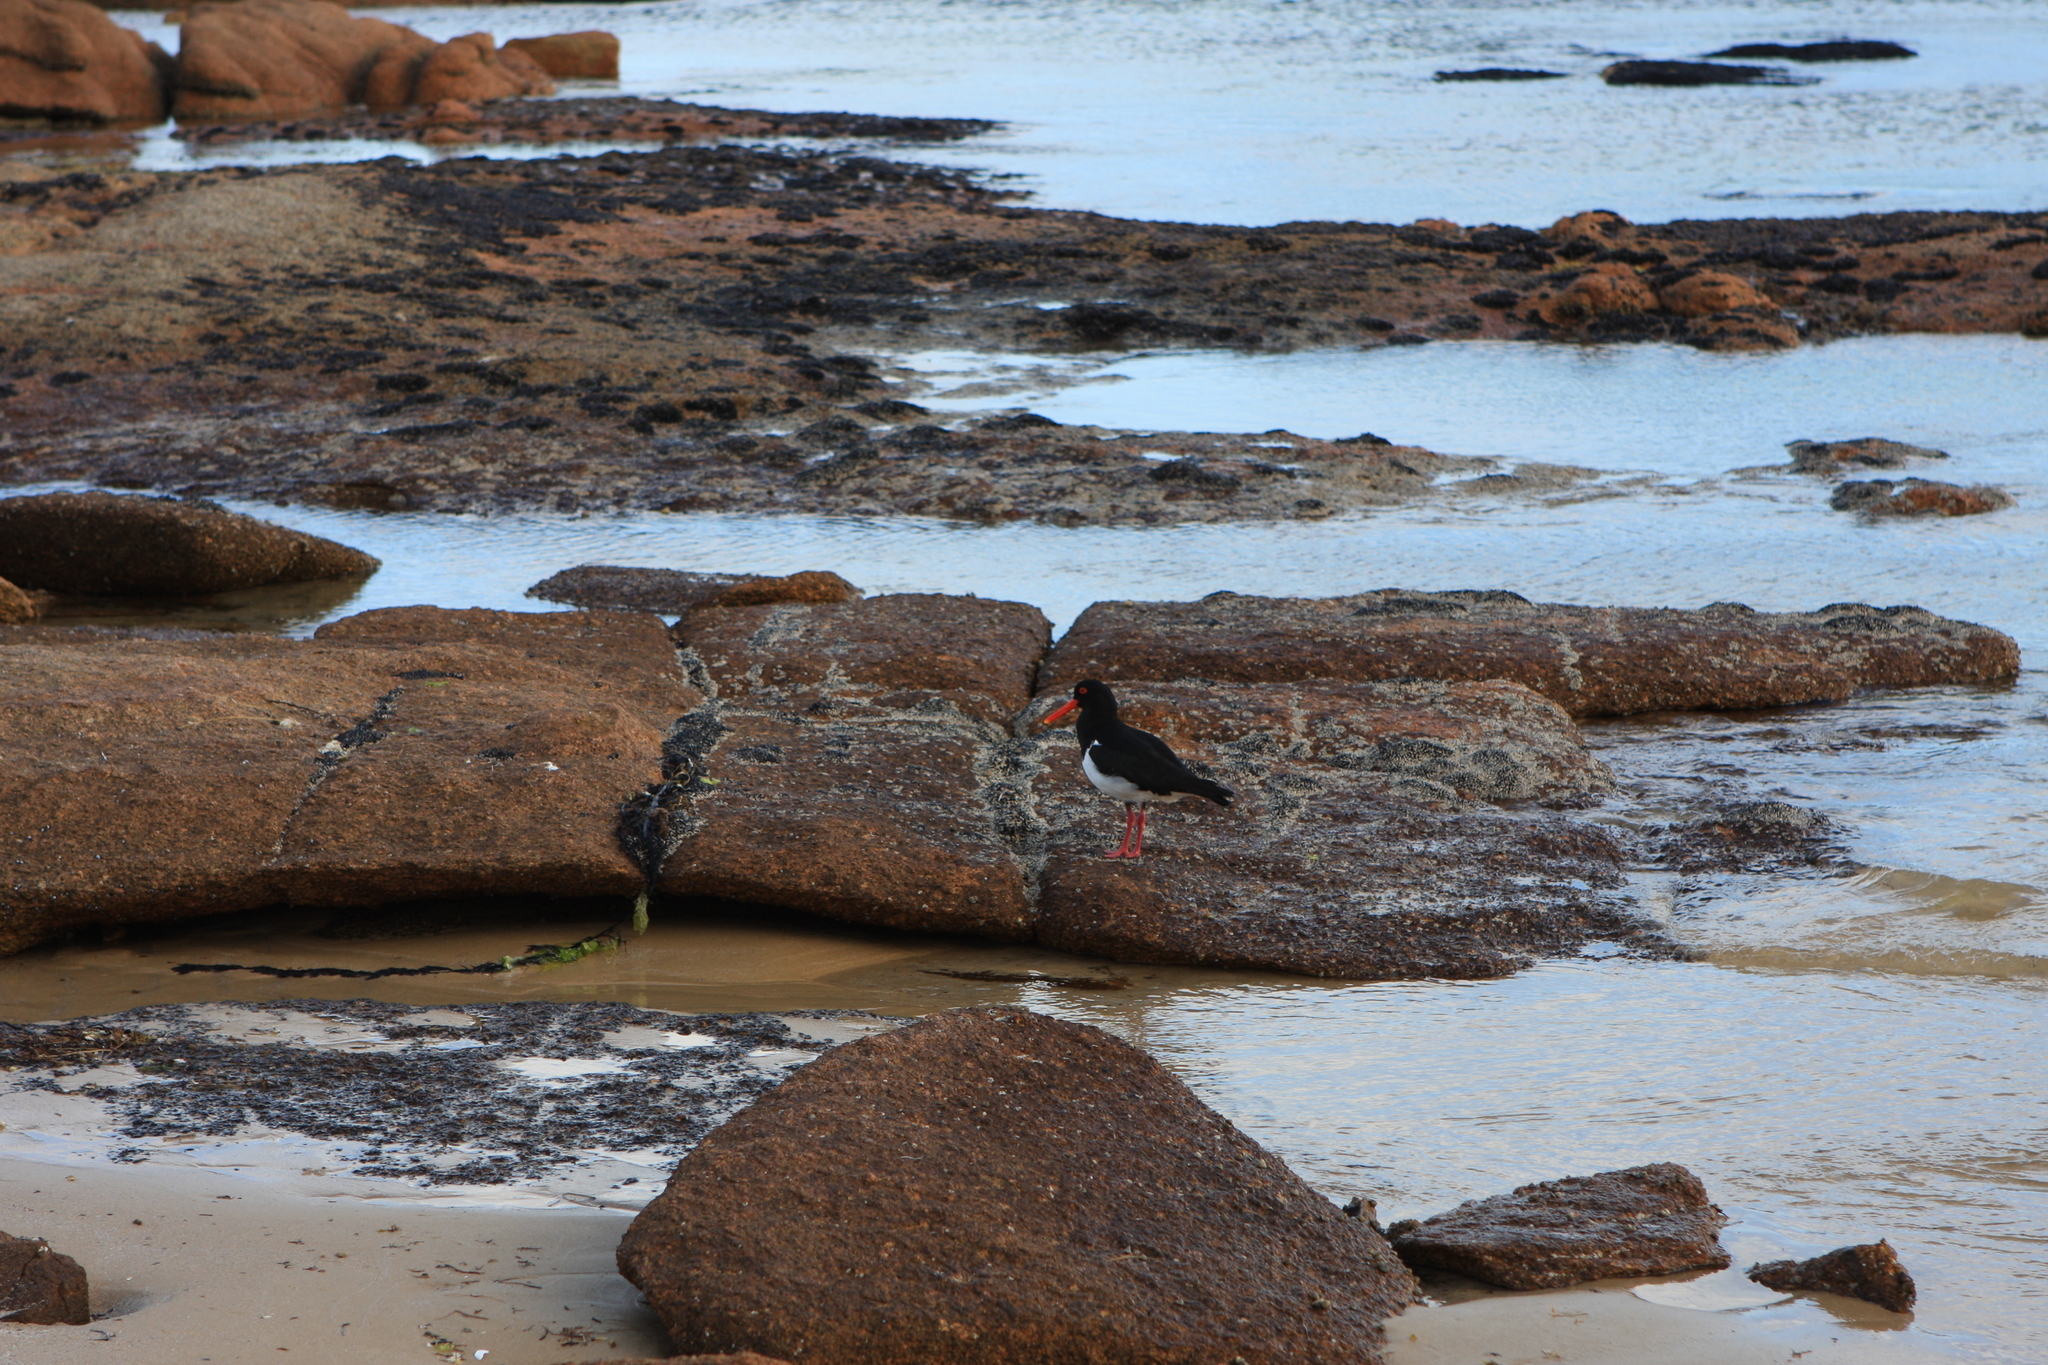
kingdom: Animalia
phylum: Chordata
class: Aves
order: Charadriiformes
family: Haematopodidae
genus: Haematopus
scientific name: Haematopus longirostris
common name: Pied oystercatcher
